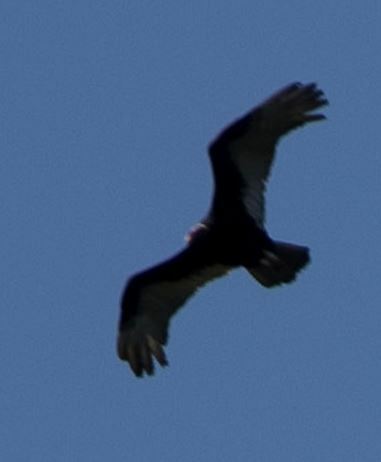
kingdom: Animalia
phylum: Chordata
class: Aves
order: Accipitriformes
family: Cathartidae
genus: Cathartes
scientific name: Cathartes aura
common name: Turkey vulture
